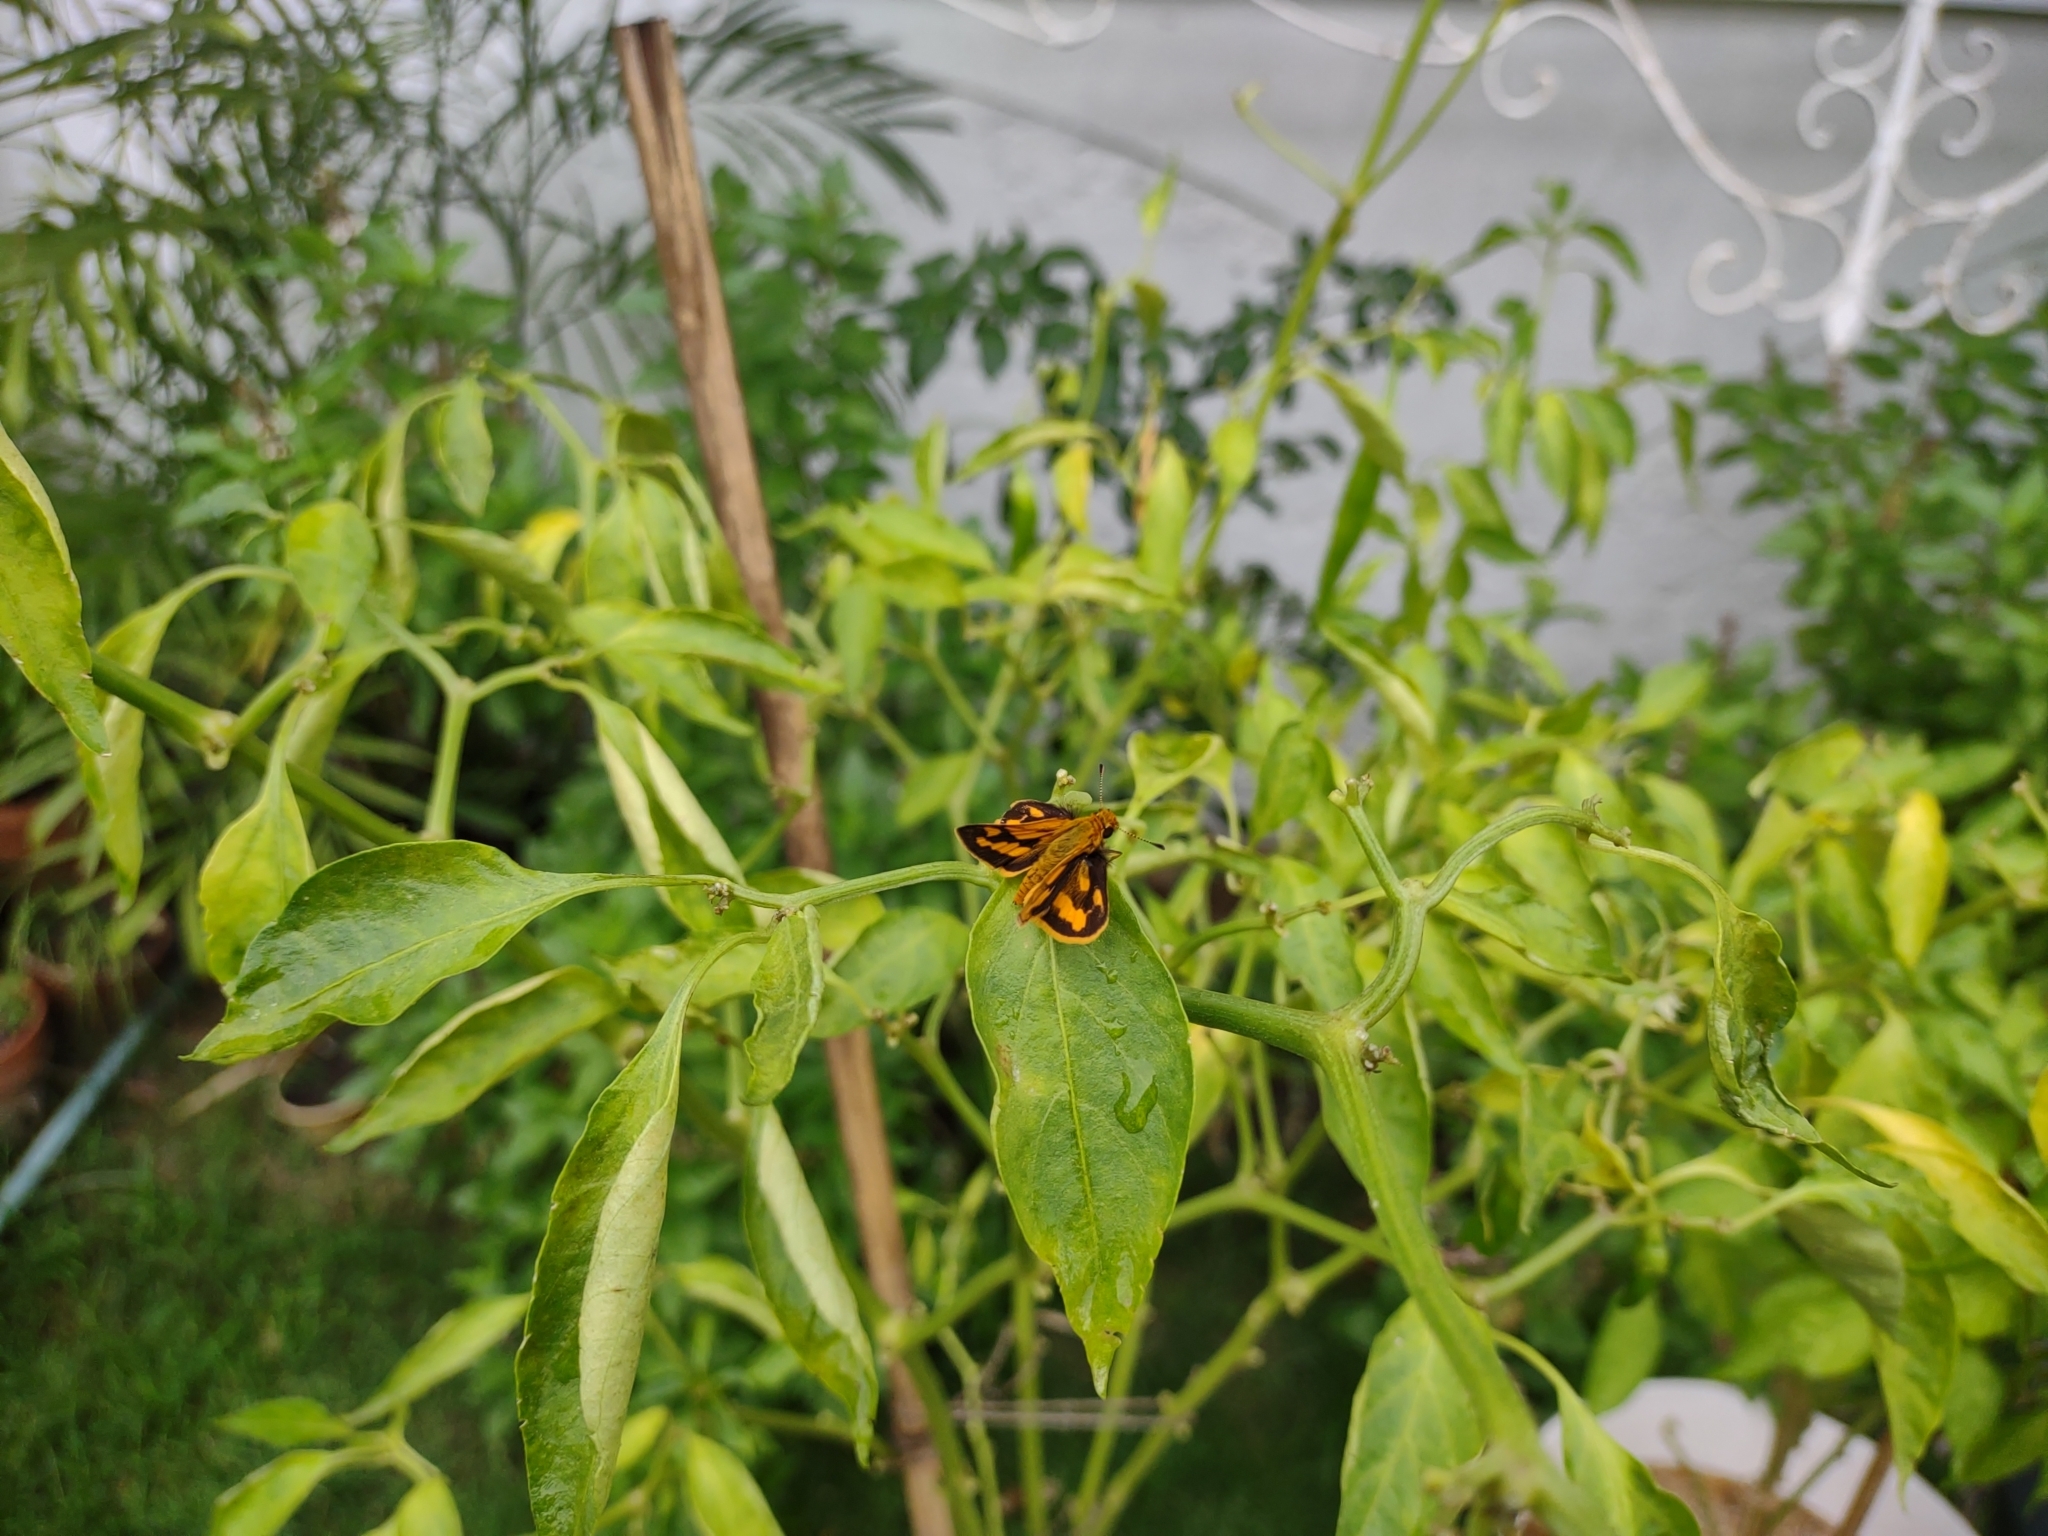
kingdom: Animalia
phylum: Arthropoda
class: Insecta
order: Lepidoptera
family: Hesperiidae
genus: Taractrocera
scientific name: Taractrocera
